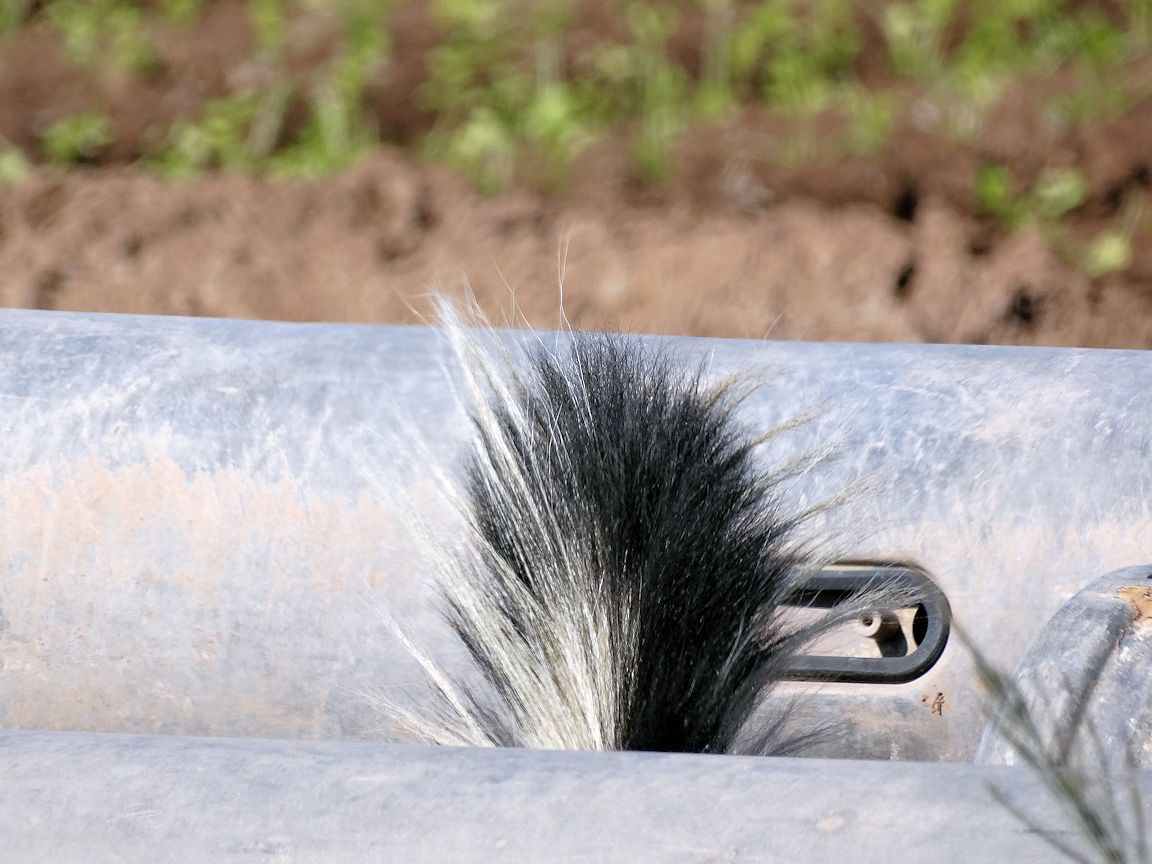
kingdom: Animalia
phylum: Chordata
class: Mammalia
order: Carnivora
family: Mephitidae
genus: Mephitis
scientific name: Mephitis mephitis
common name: Striped skunk
